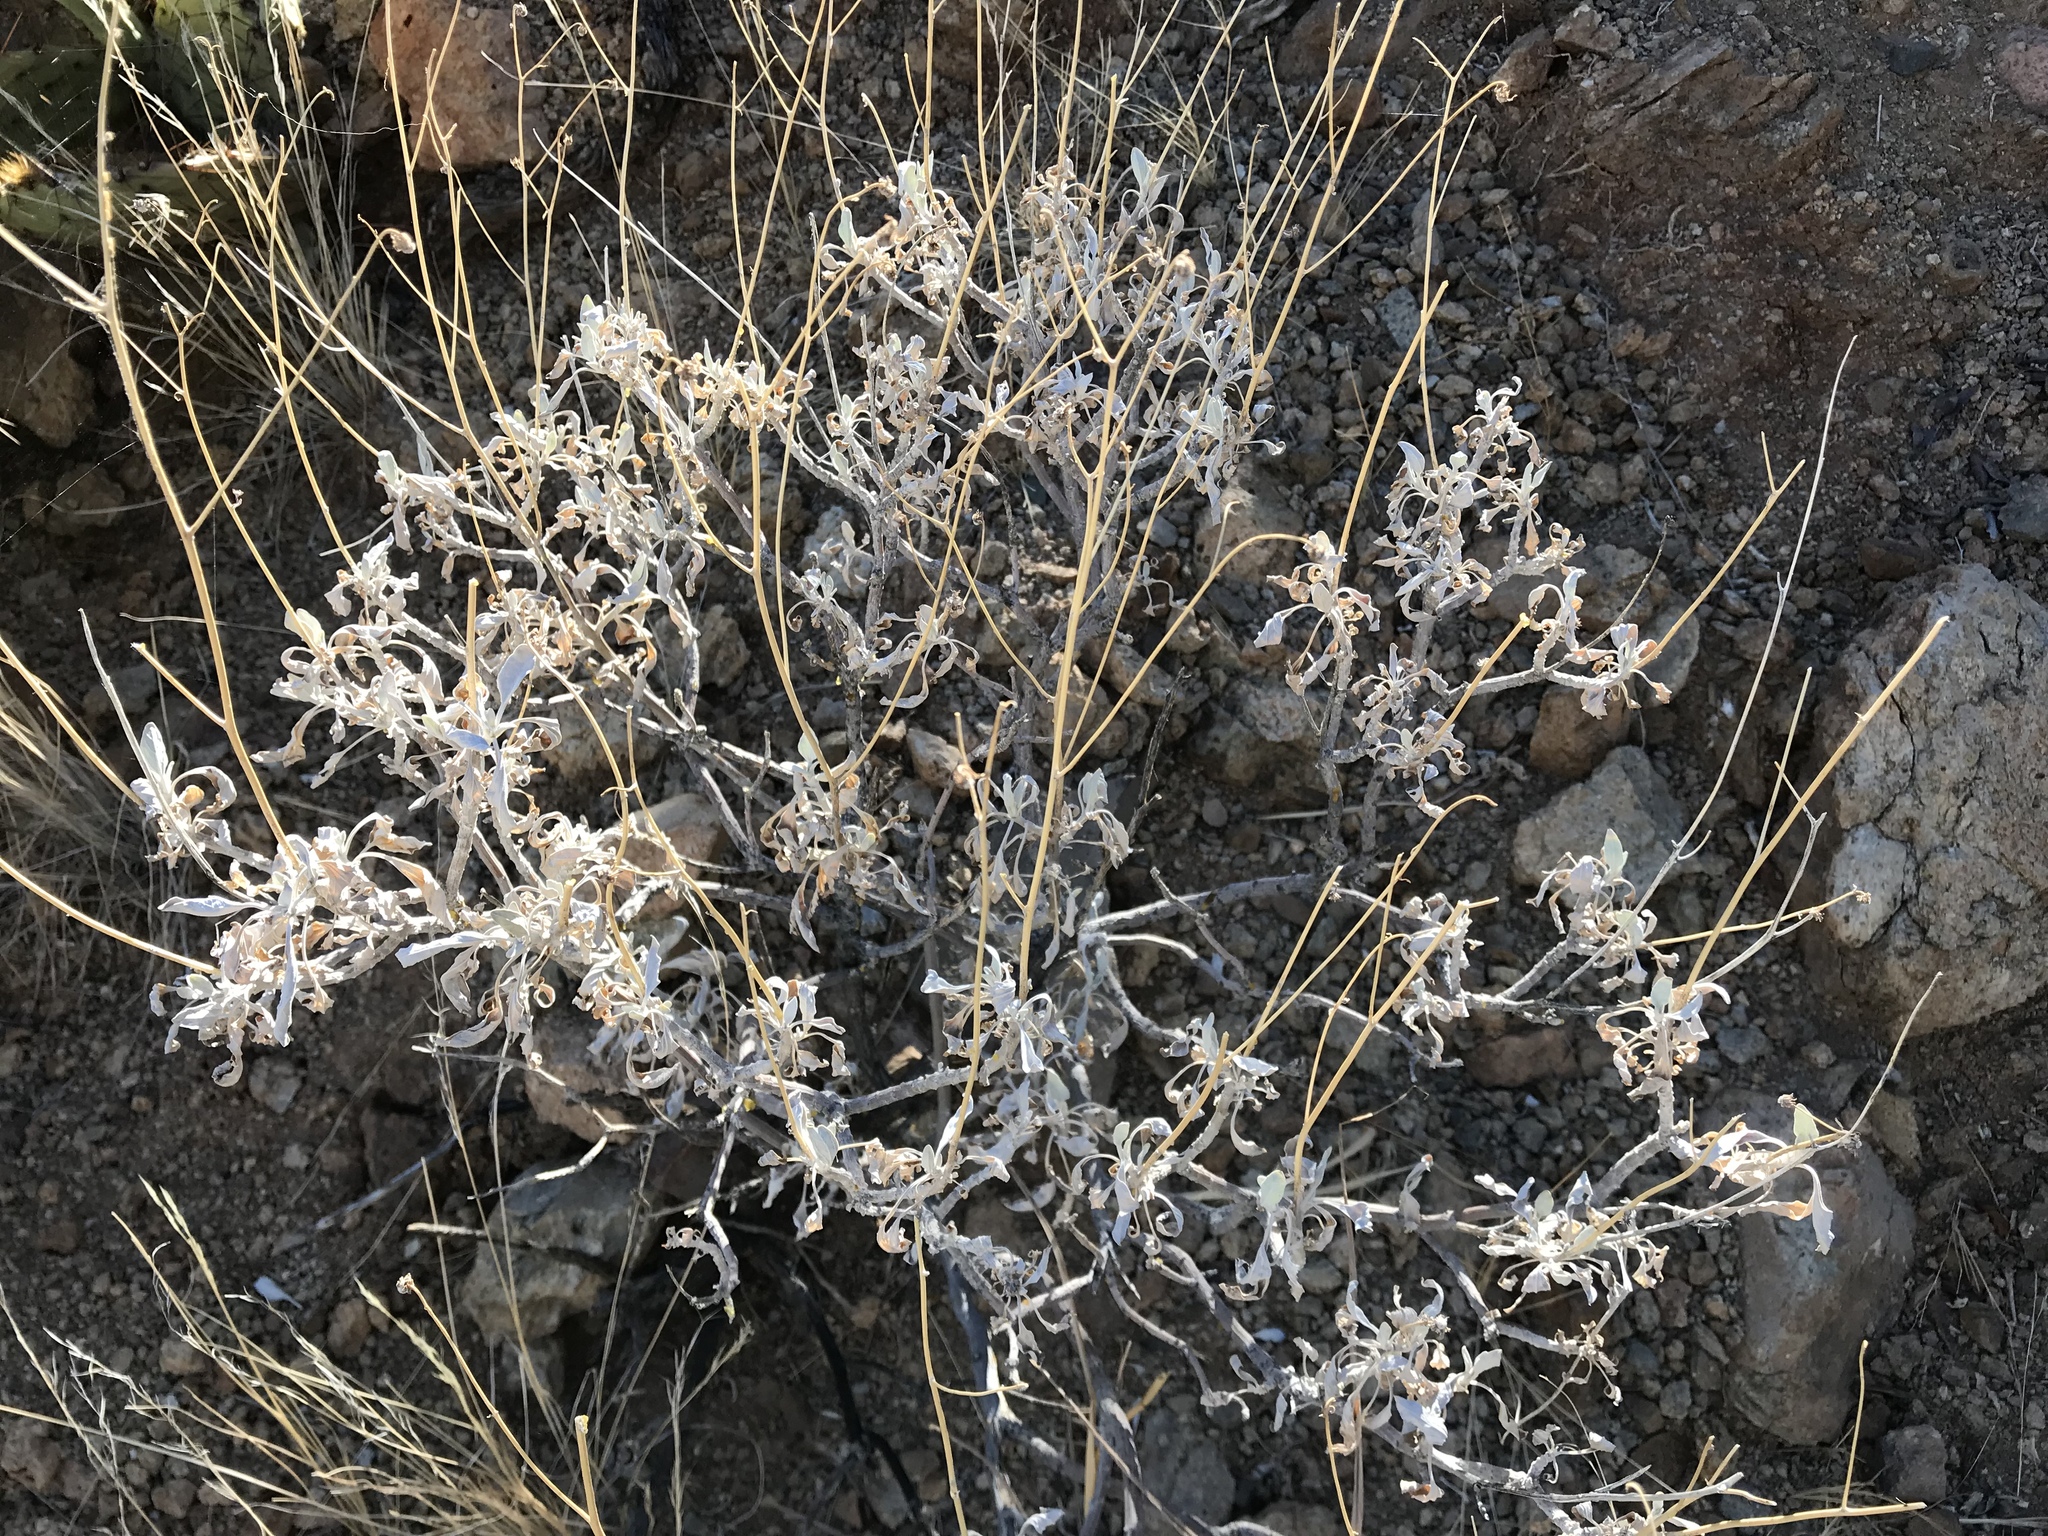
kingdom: Plantae
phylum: Tracheophyta
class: Magnoliopsida
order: Asterales
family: Asteraceae
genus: Encelia
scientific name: Encelia farinosa
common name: Brittlebush
